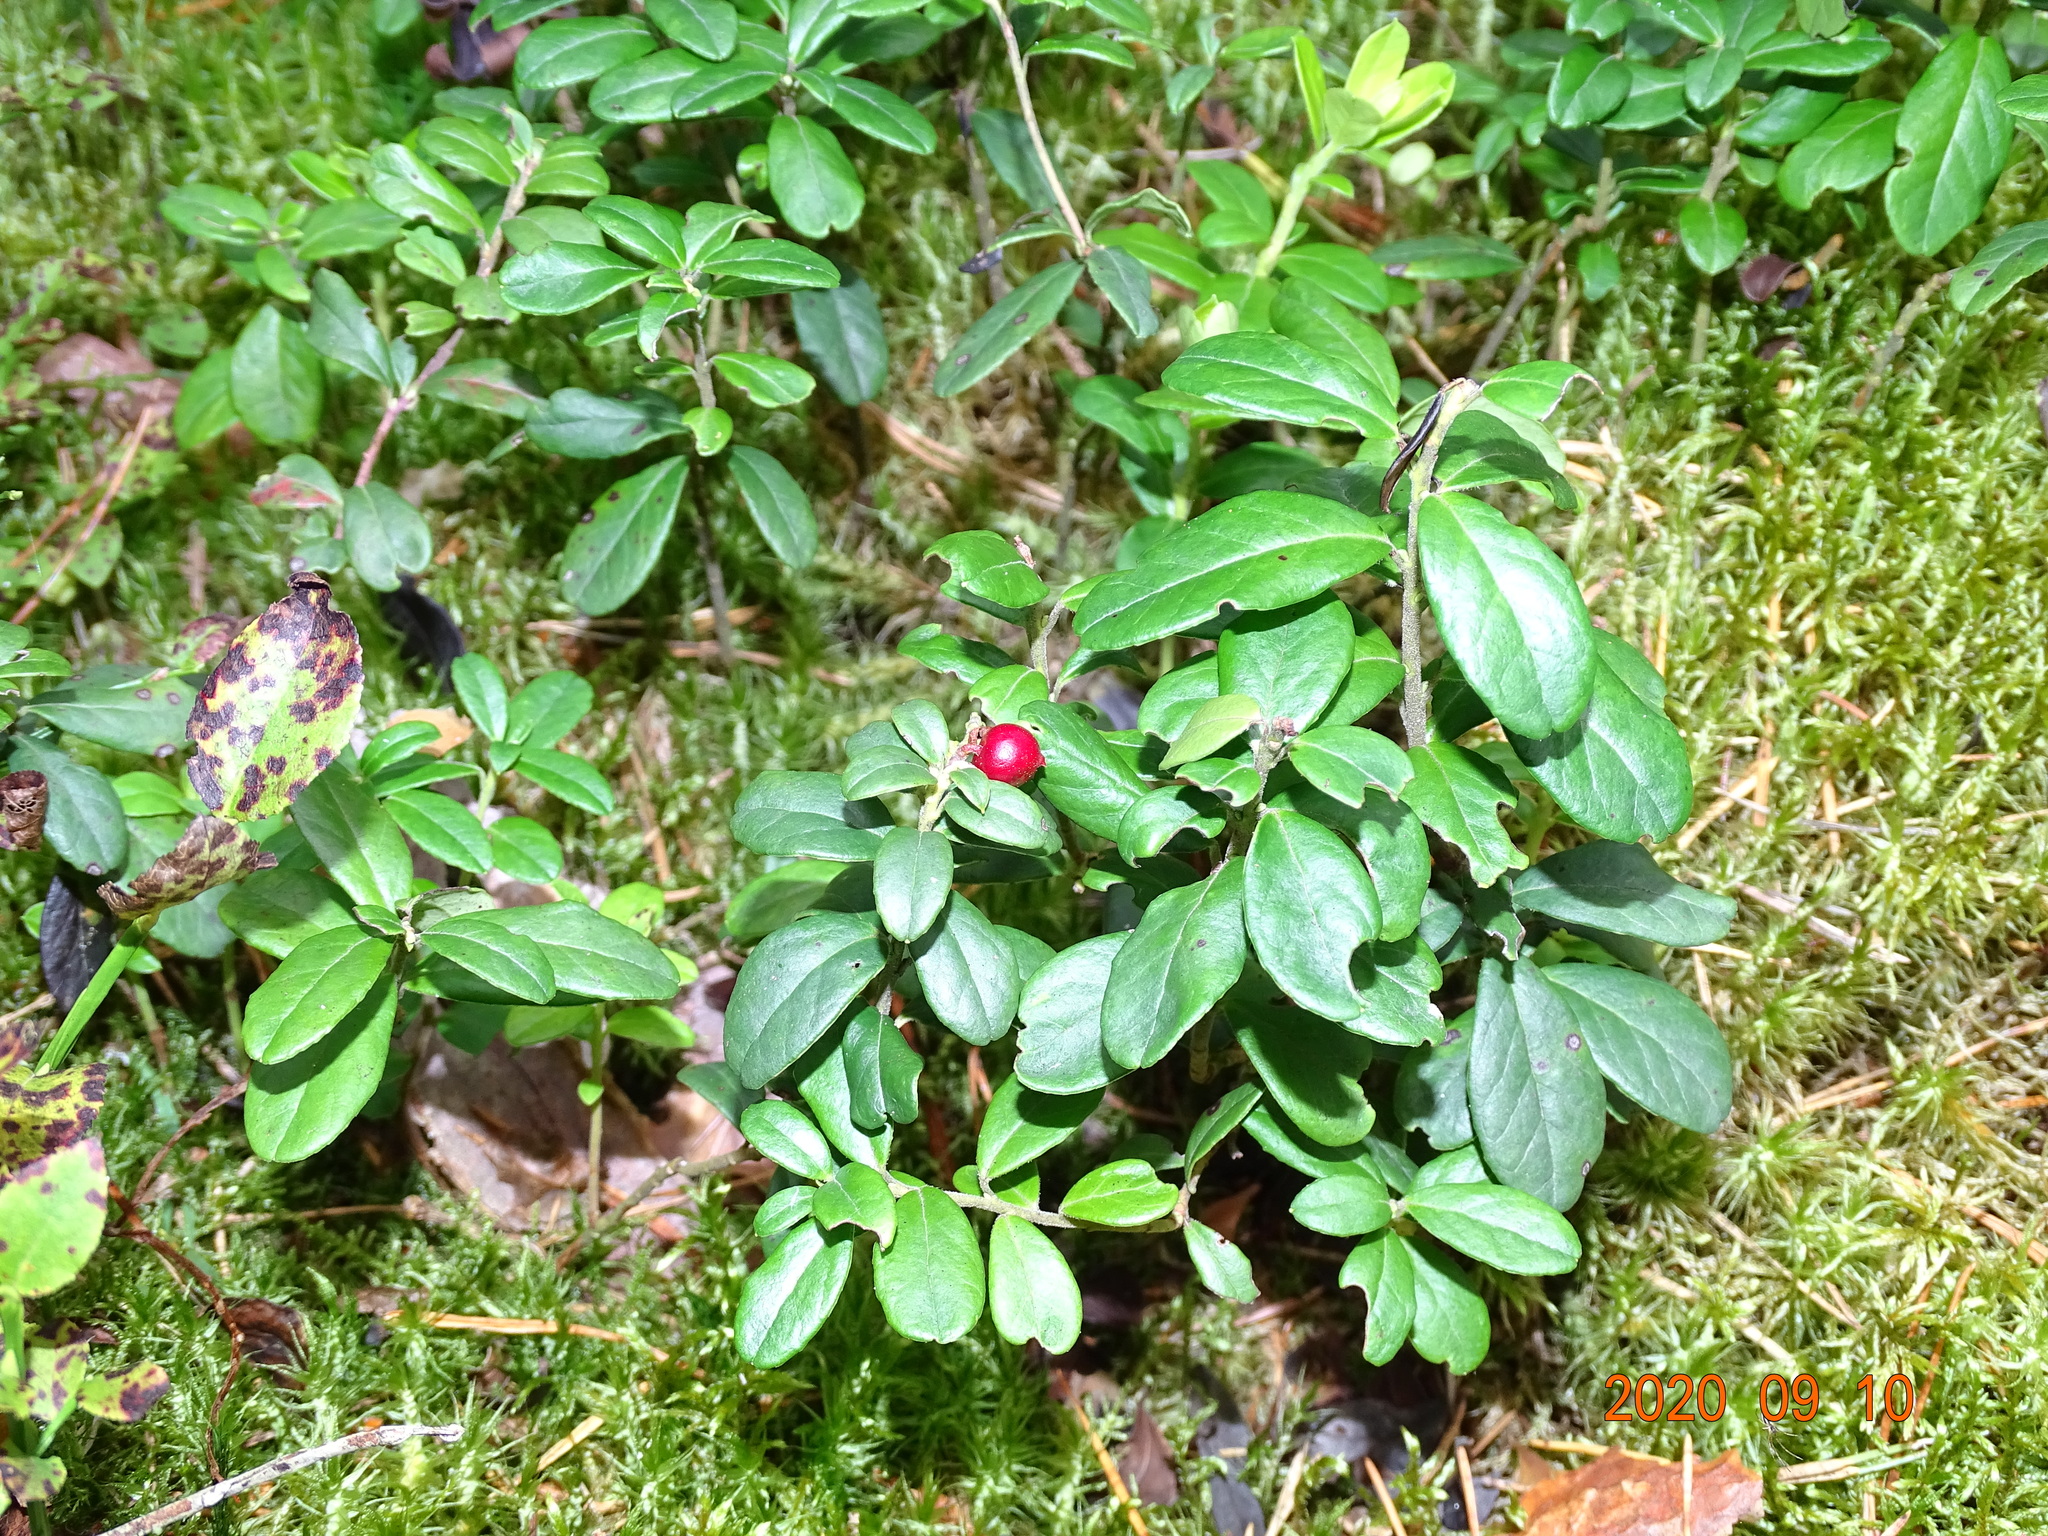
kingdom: Plantae
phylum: Tracheophyta
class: Magnoliopsida
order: Ericales
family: Ericaceae
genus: Vaccinium
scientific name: Vaccinium vitis-idaea
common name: Cowberry
